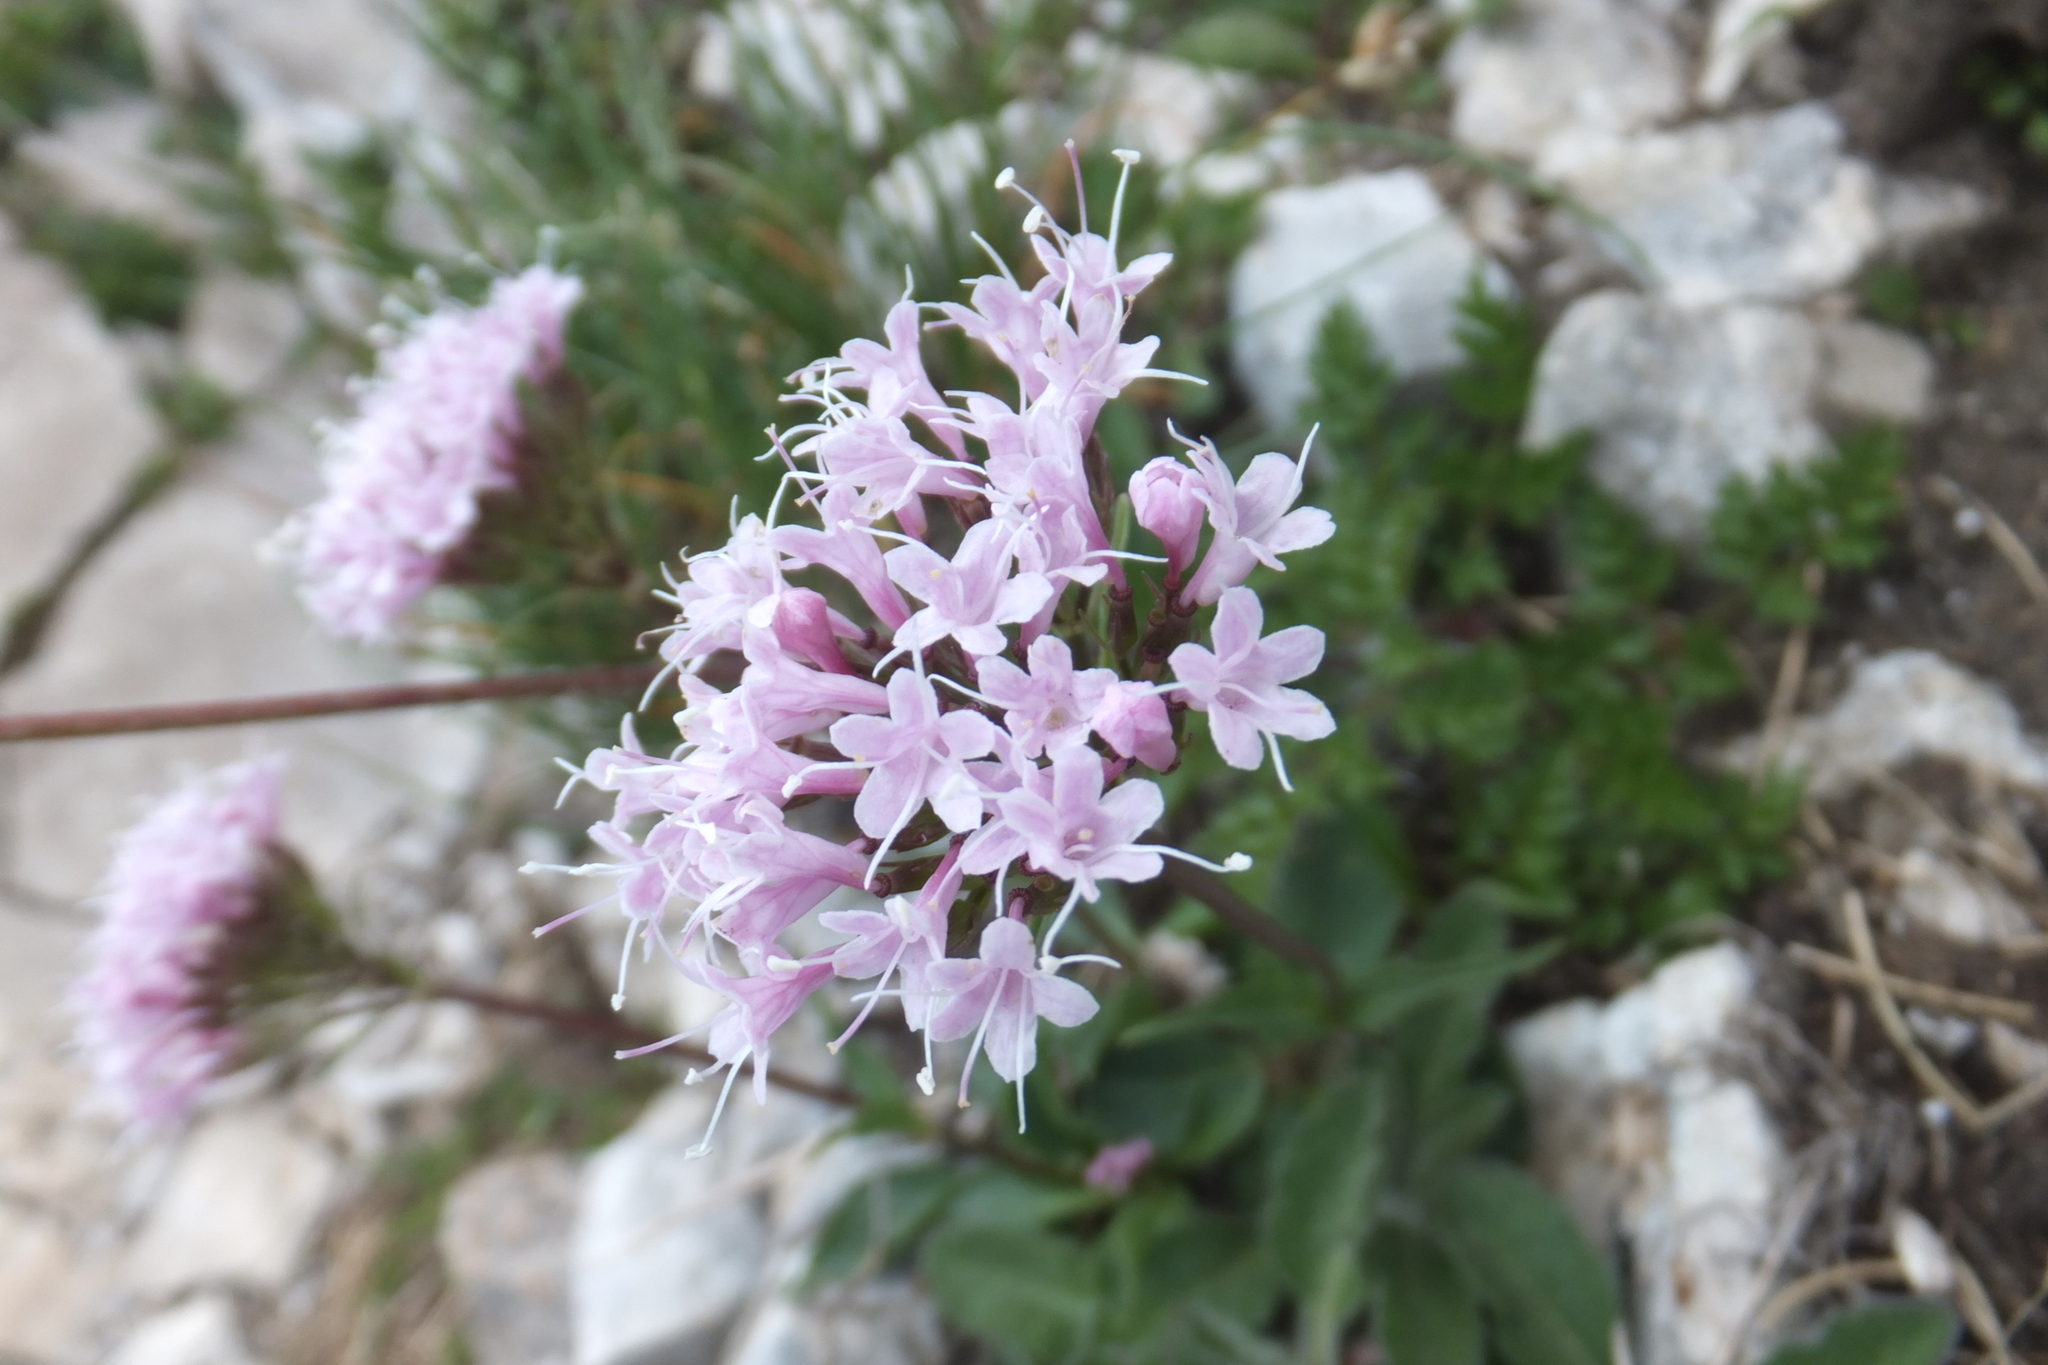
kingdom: Plantae
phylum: Tracheophyta
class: Magnoliopsida
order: Dipsacales
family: Caprifoliaceae
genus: Valeriana
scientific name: Valeriana saliunca
